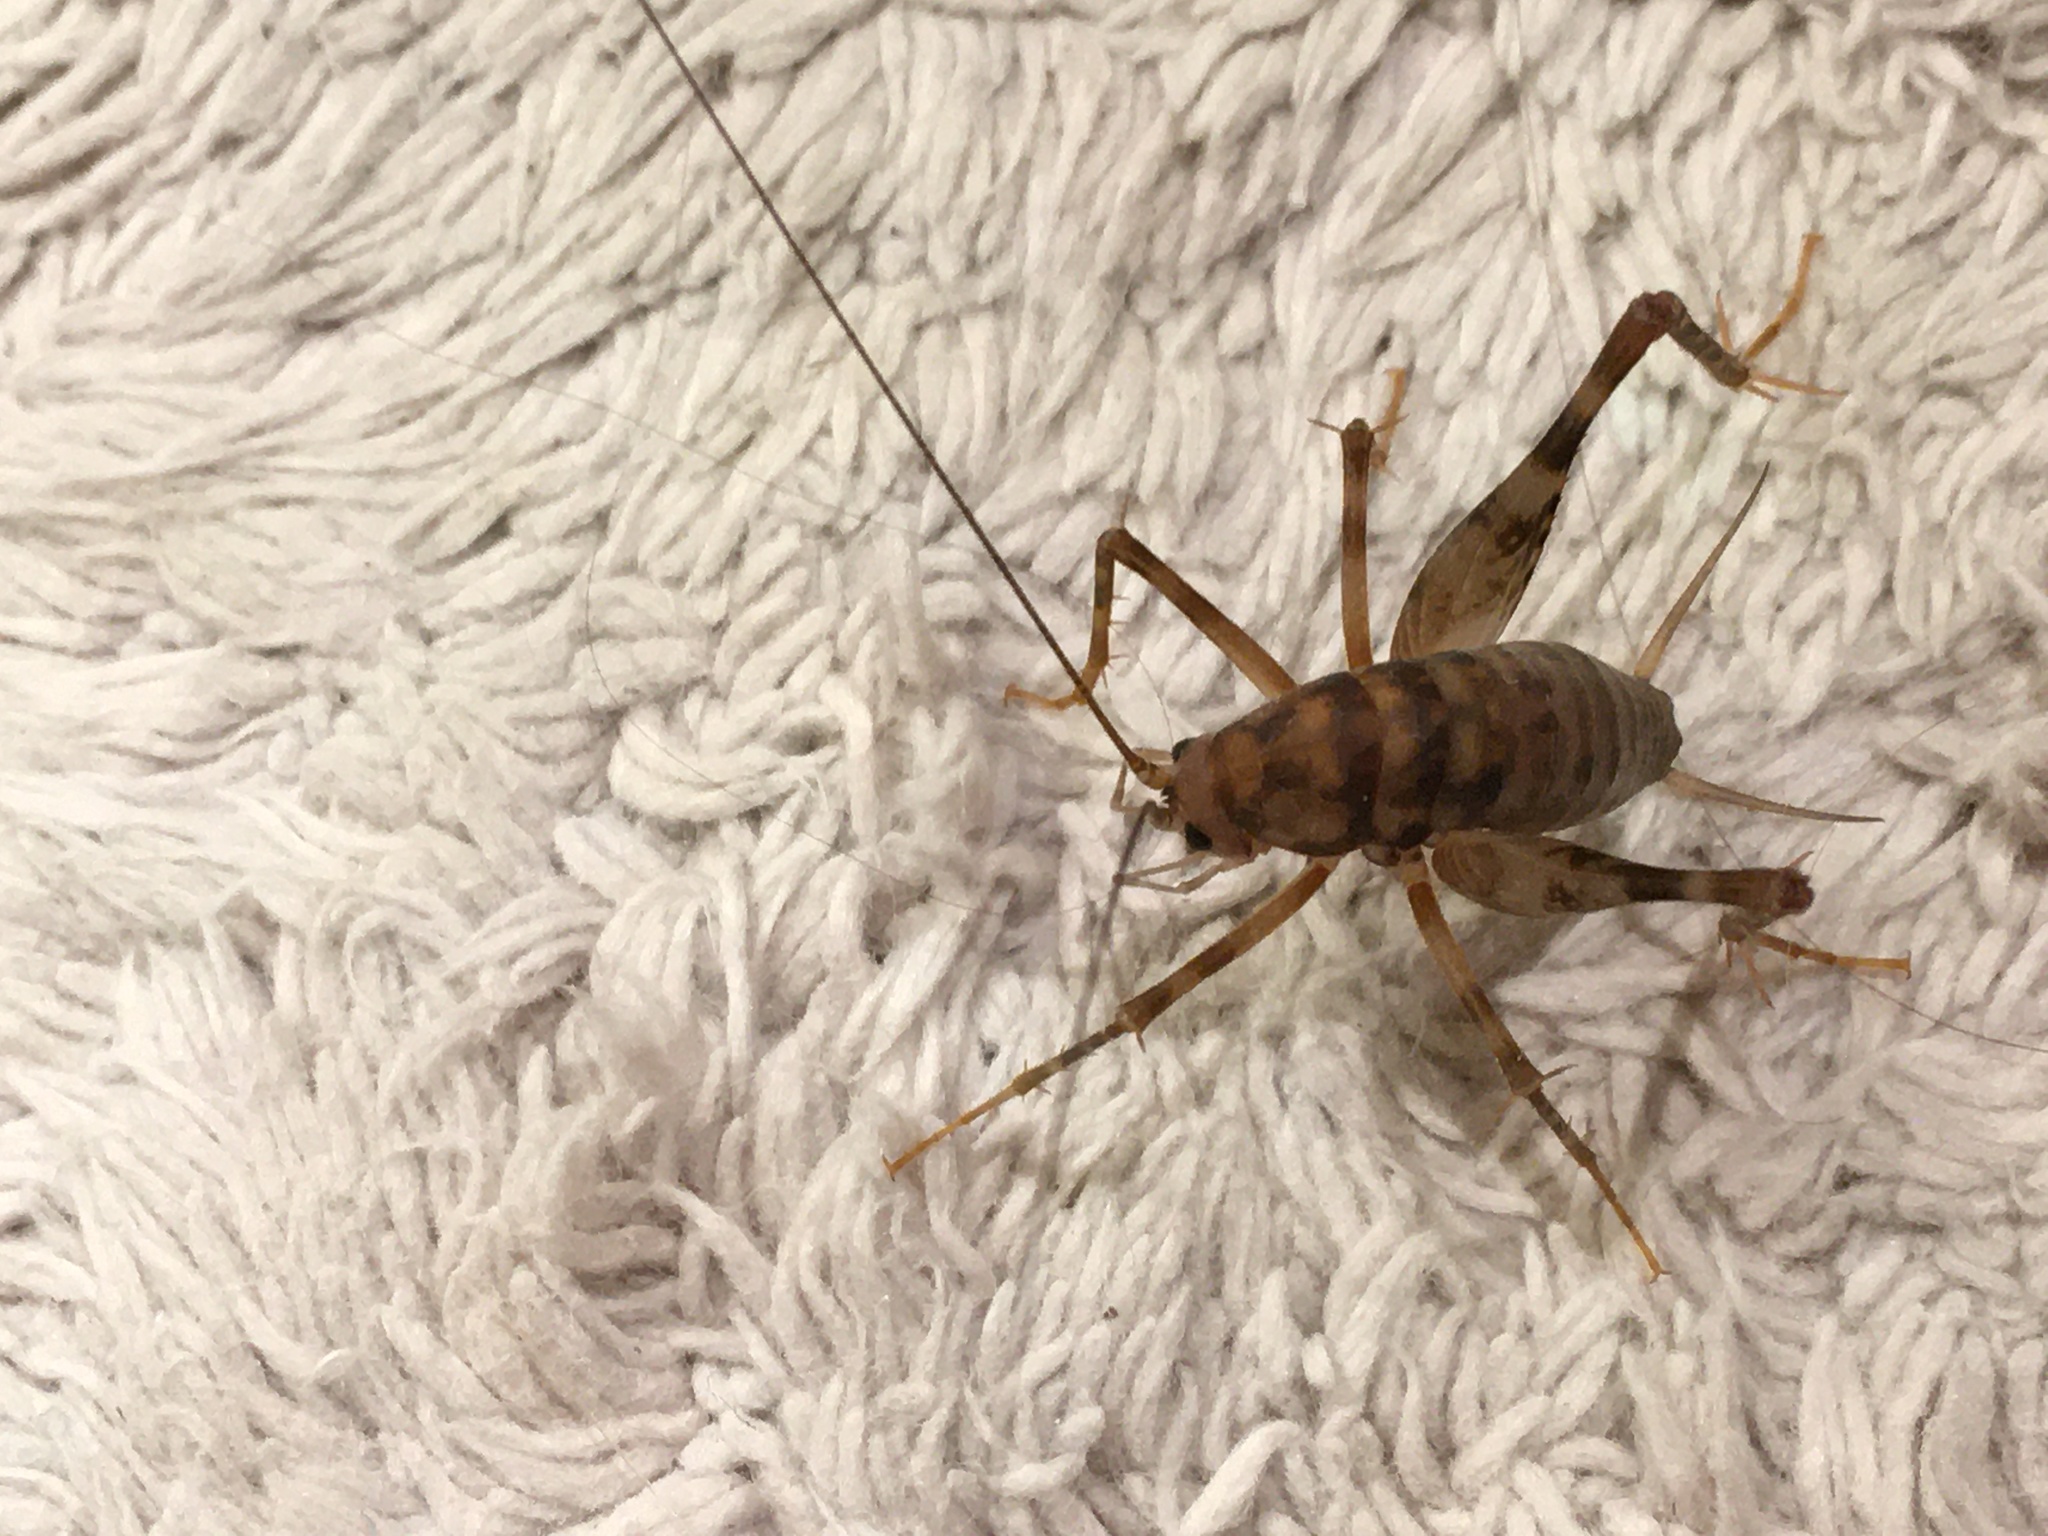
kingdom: Animalia
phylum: Arthropoda
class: Insecta
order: Orthoptera
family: Rhaphidophoridae
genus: Tachycines
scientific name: Tachycines asynamorus
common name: Greenhouse camel cricket
